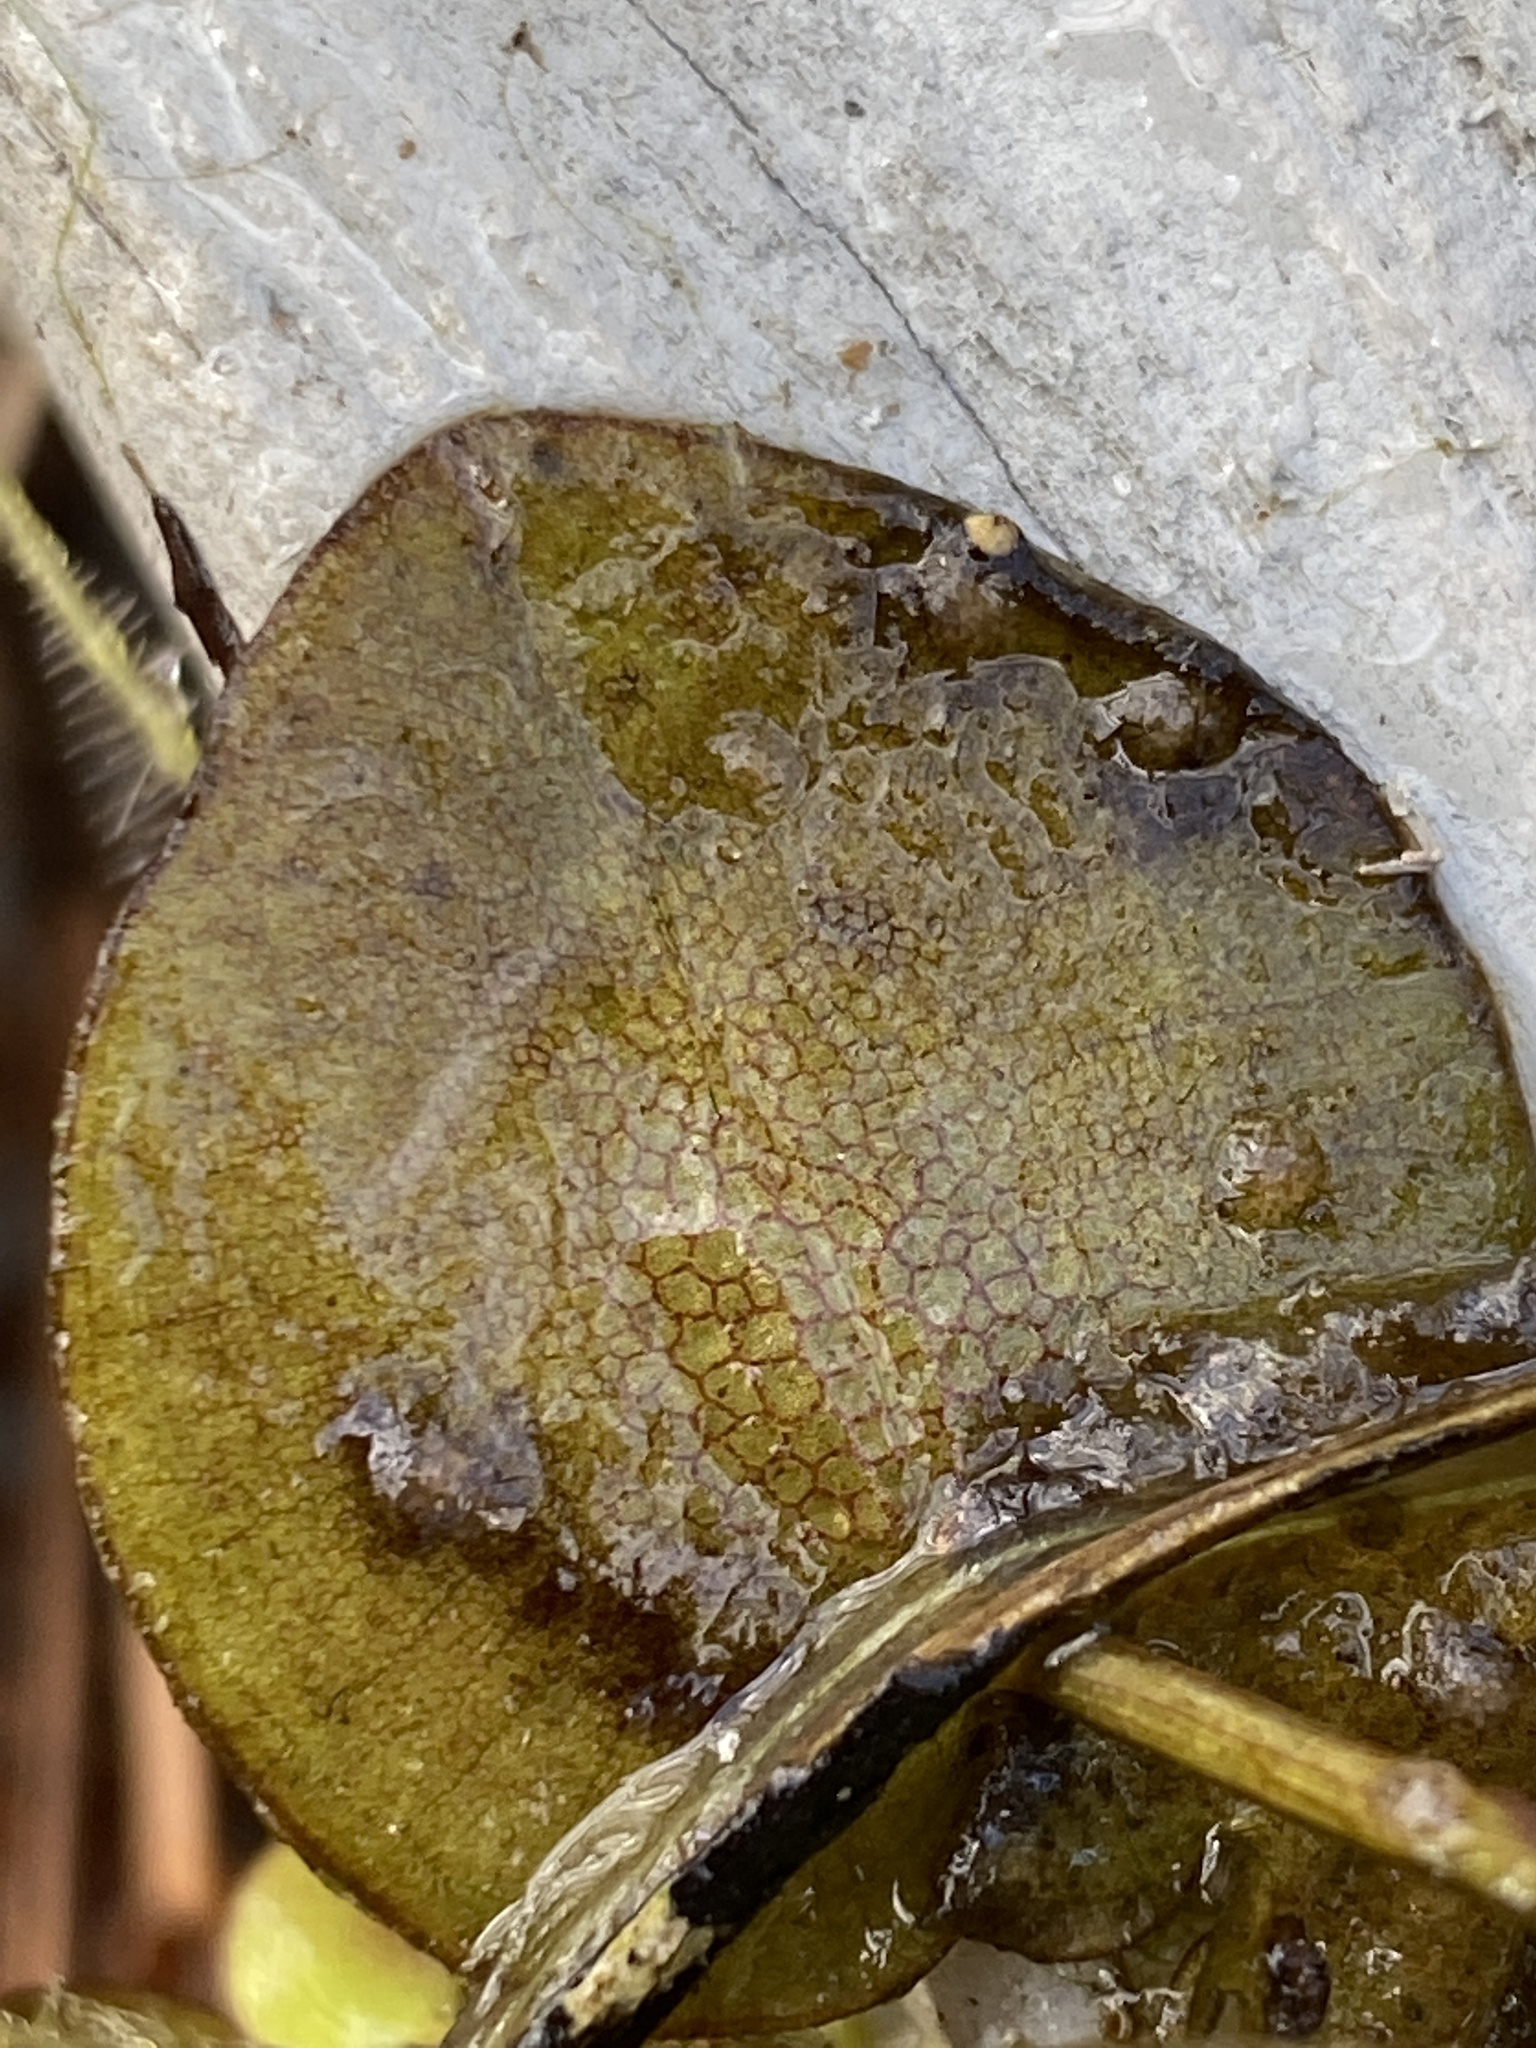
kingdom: Plantae
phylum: Tracheophyta
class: Liliopsida
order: Alismatales
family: Hydrocharitaceae
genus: Hydrocharis
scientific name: Hydrocharis spongia
